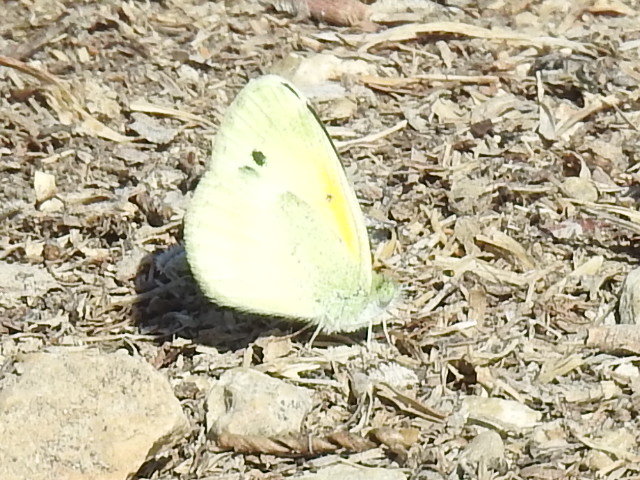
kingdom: Animalia
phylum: Arthropoda
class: Insecta
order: Lepidoptera
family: Pieridae
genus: Nathalis
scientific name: Nathalis iole
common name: Dainty sulphur
